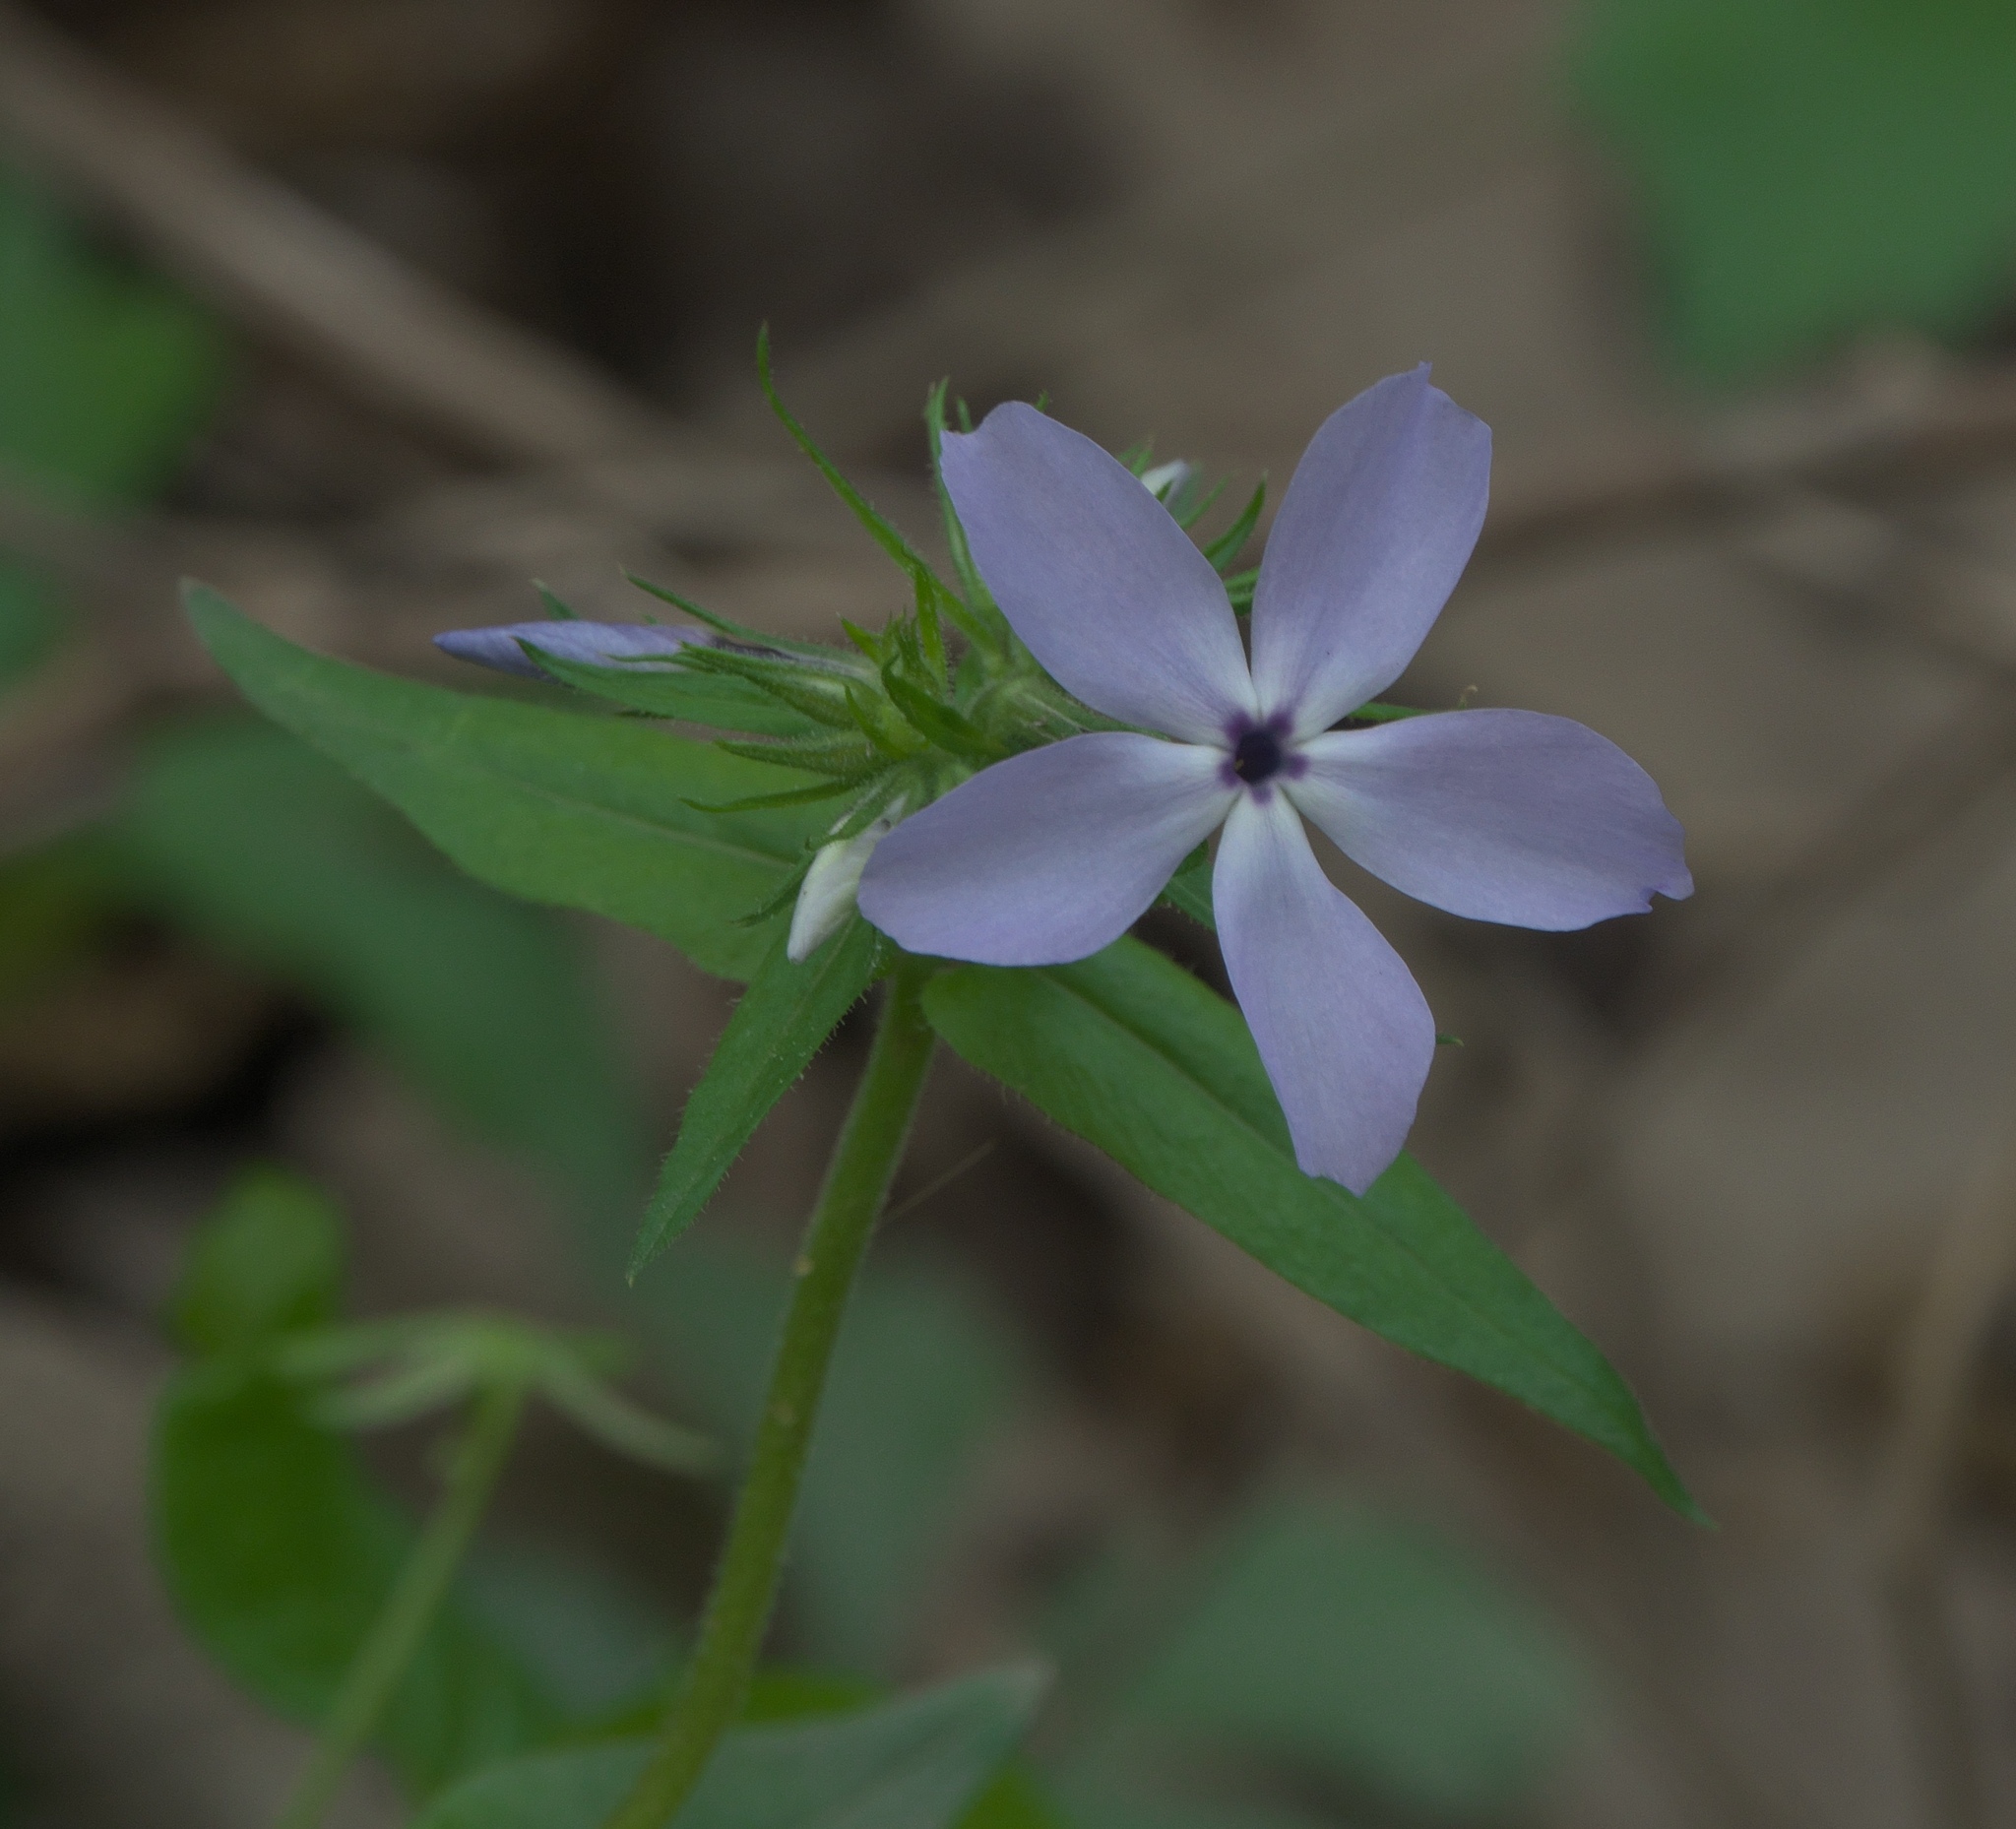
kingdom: Plantae
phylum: Tracheophyta
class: Magnoliopsida
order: Ericales
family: Polemoniaceae
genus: Phlox
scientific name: Phlox divaricata
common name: Blue phlox
